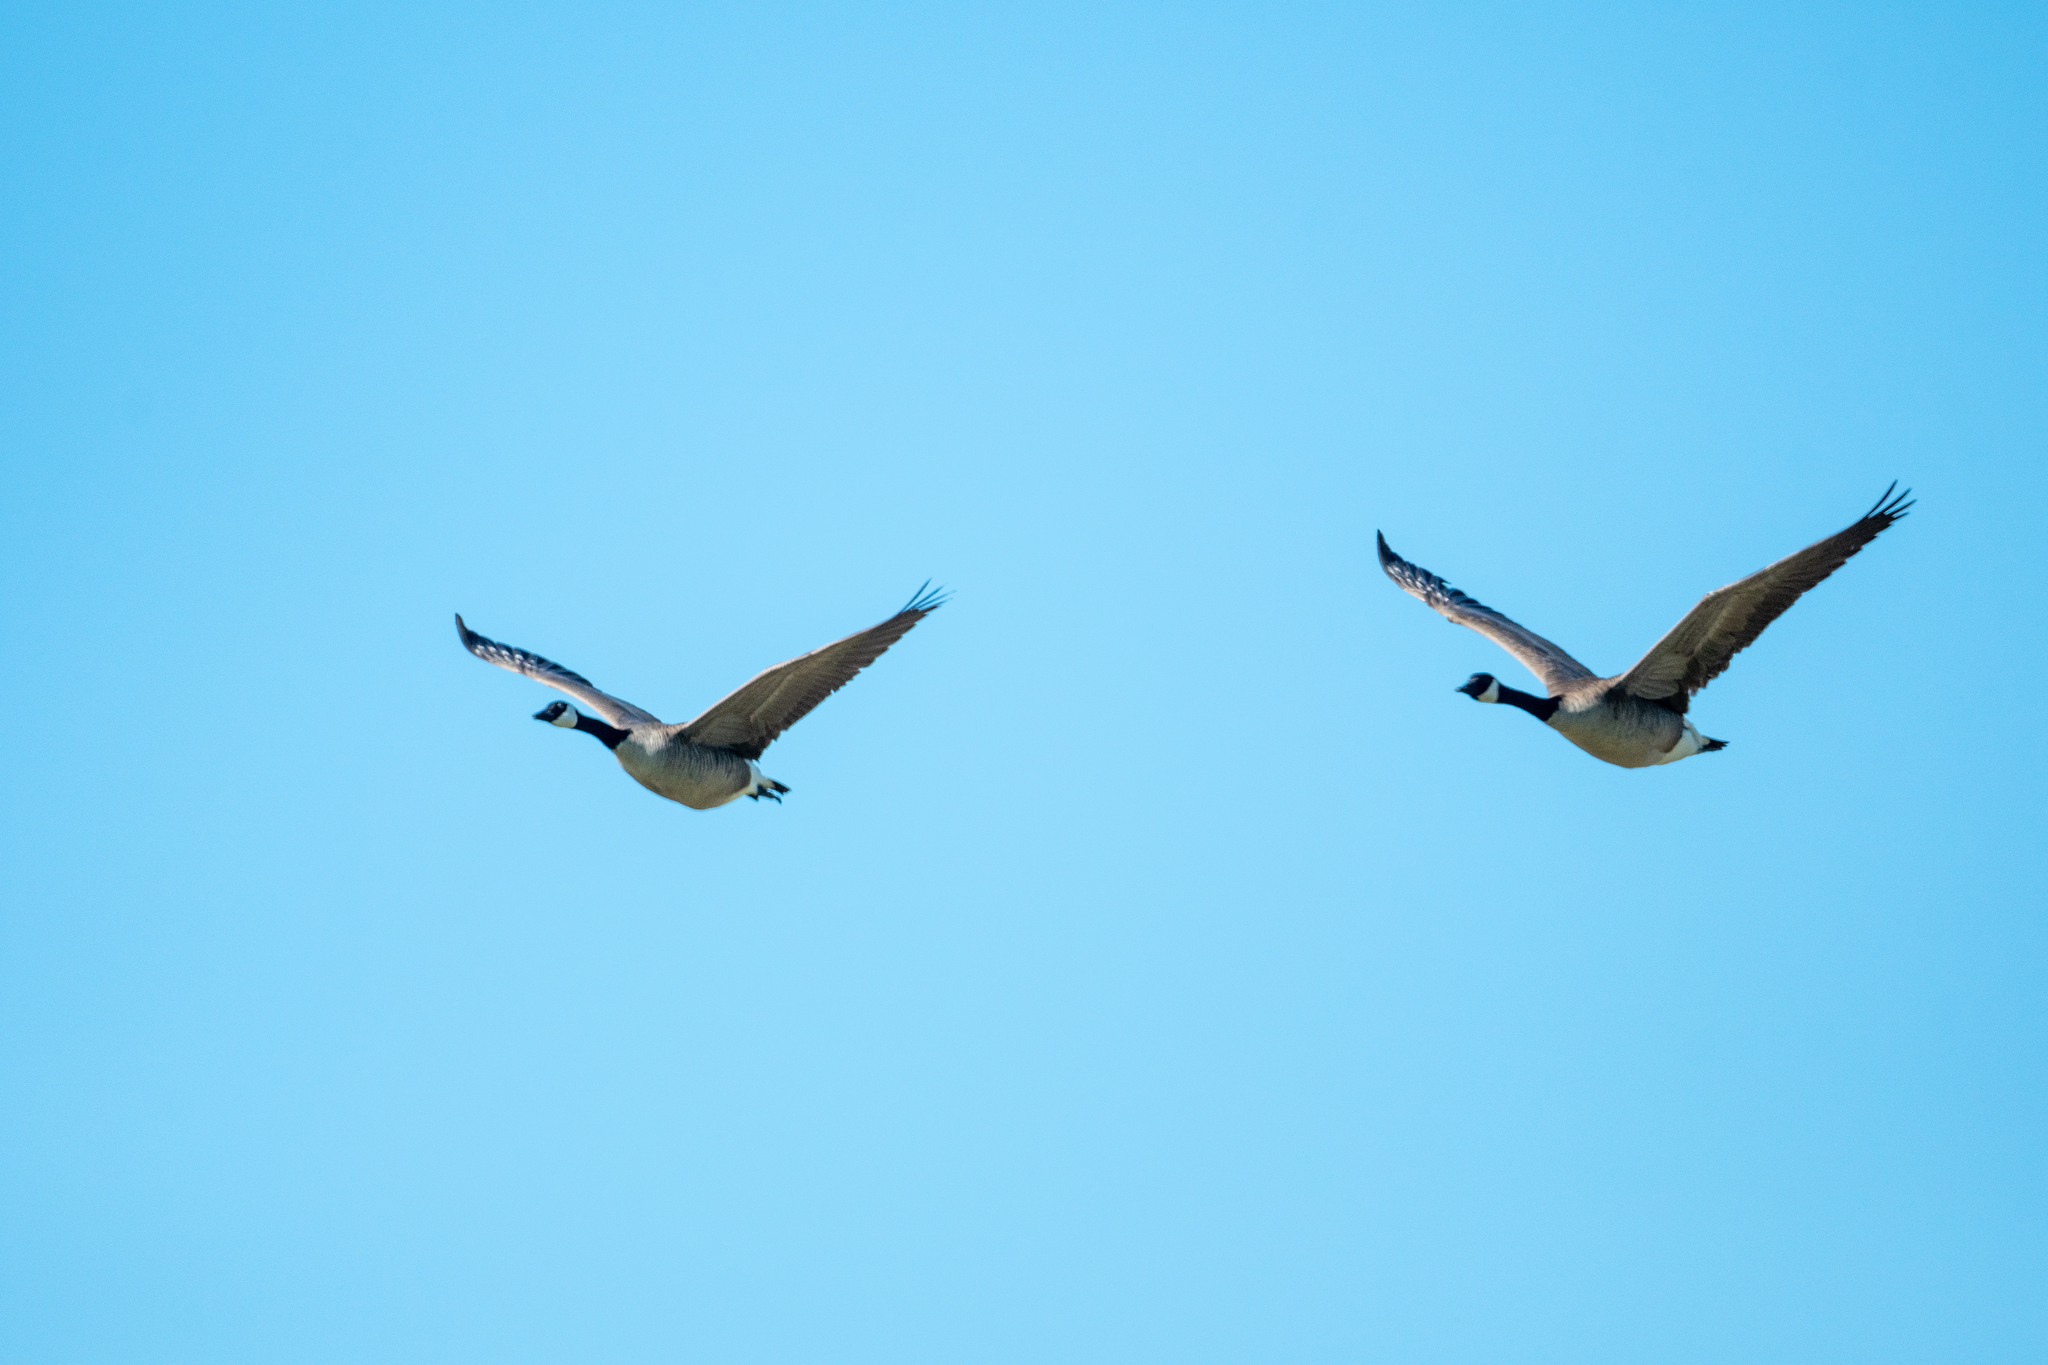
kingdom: Animalia
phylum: Chordata
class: Aves
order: Anseriformes
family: Anatidae
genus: Branta
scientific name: Branta canadensis
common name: Canada goose
